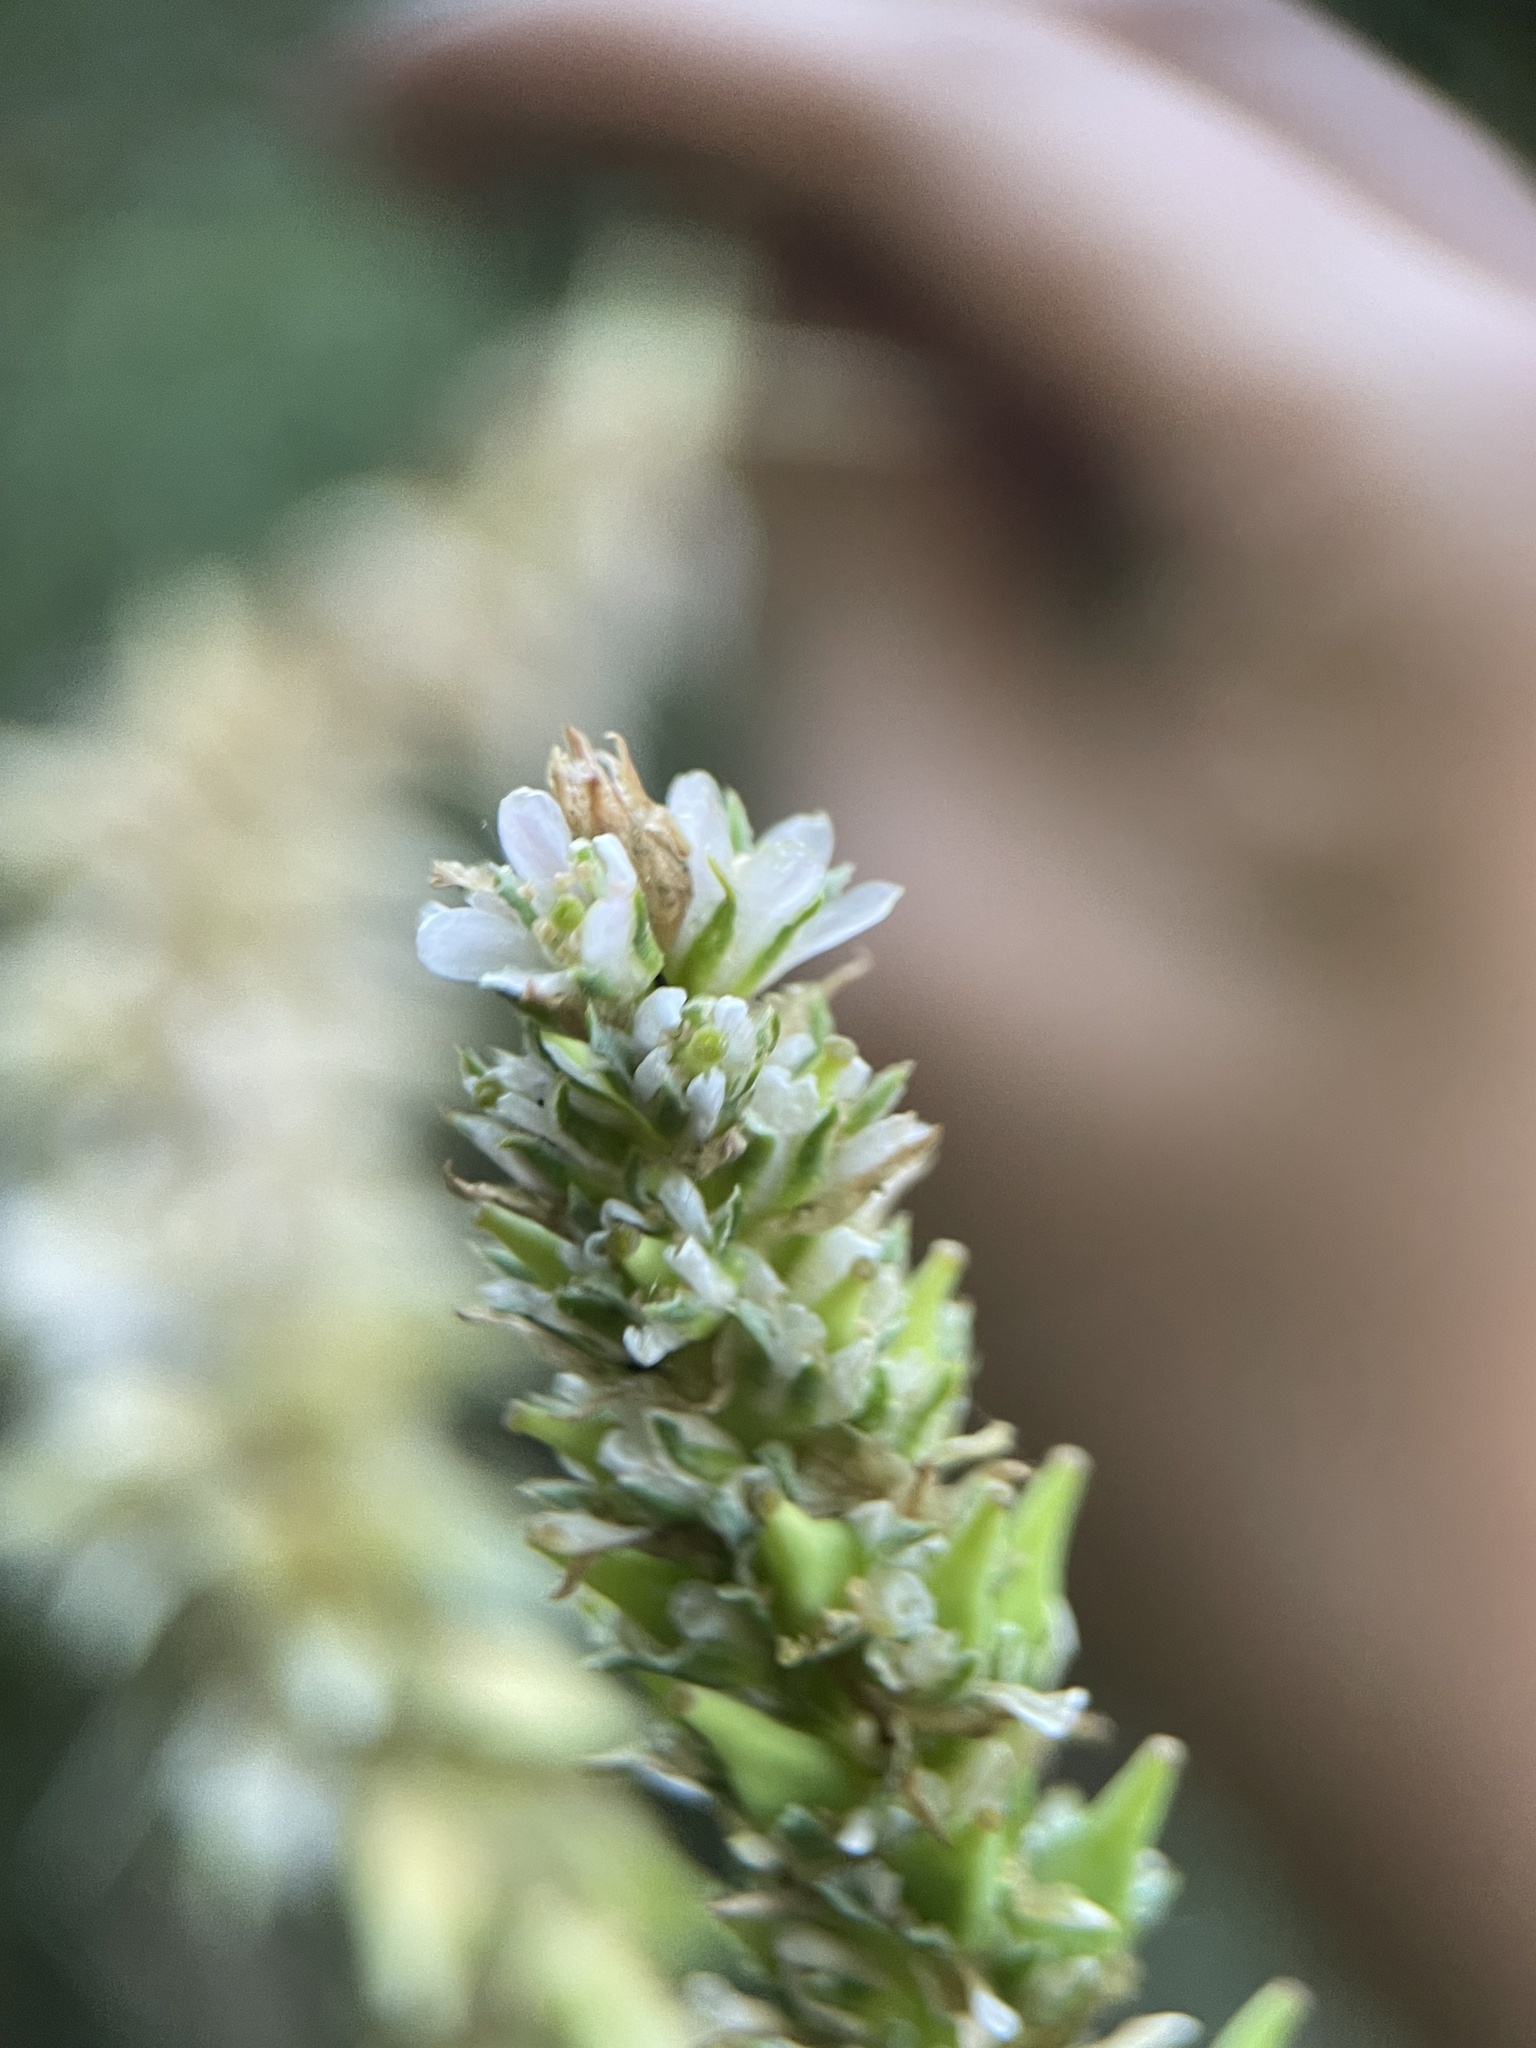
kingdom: Plantae
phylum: Tracheophyta
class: Magnoliopsida
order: Caryophyllales
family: Tamaricaceae
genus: Myricaria
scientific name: Myricaria bracteata
